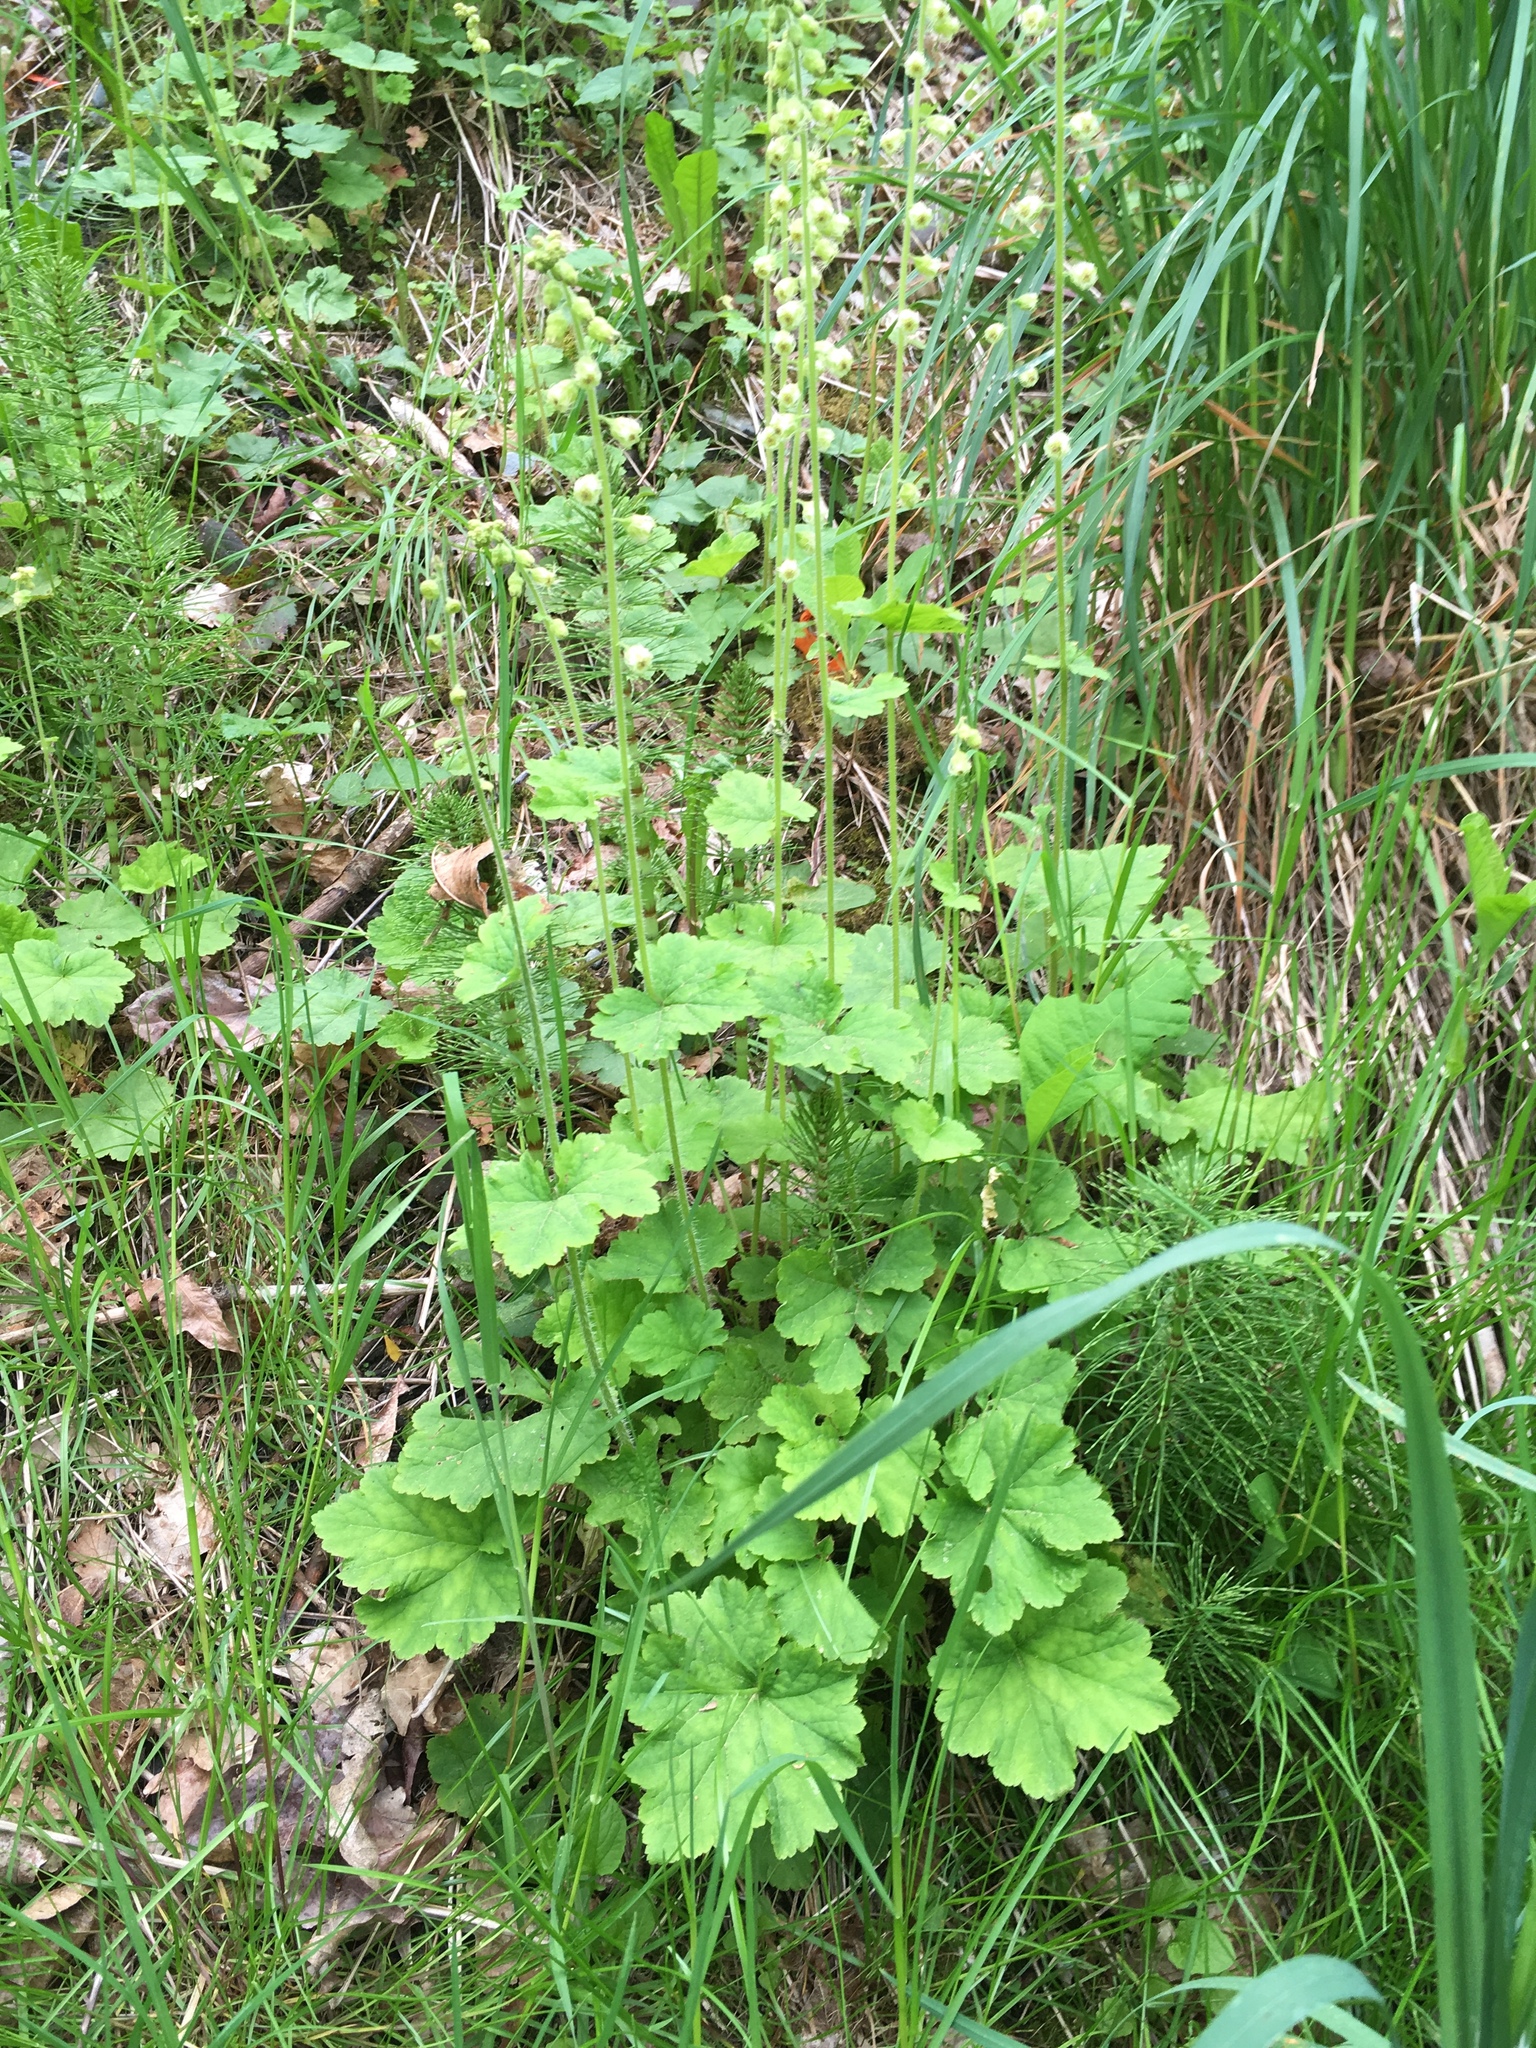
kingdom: Plantae
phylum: Tracheophyta
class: Magnoliopsida
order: Saxifragales
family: Saxifragaceae
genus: Tellima
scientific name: Tellima grandiflora
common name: Fringecups
